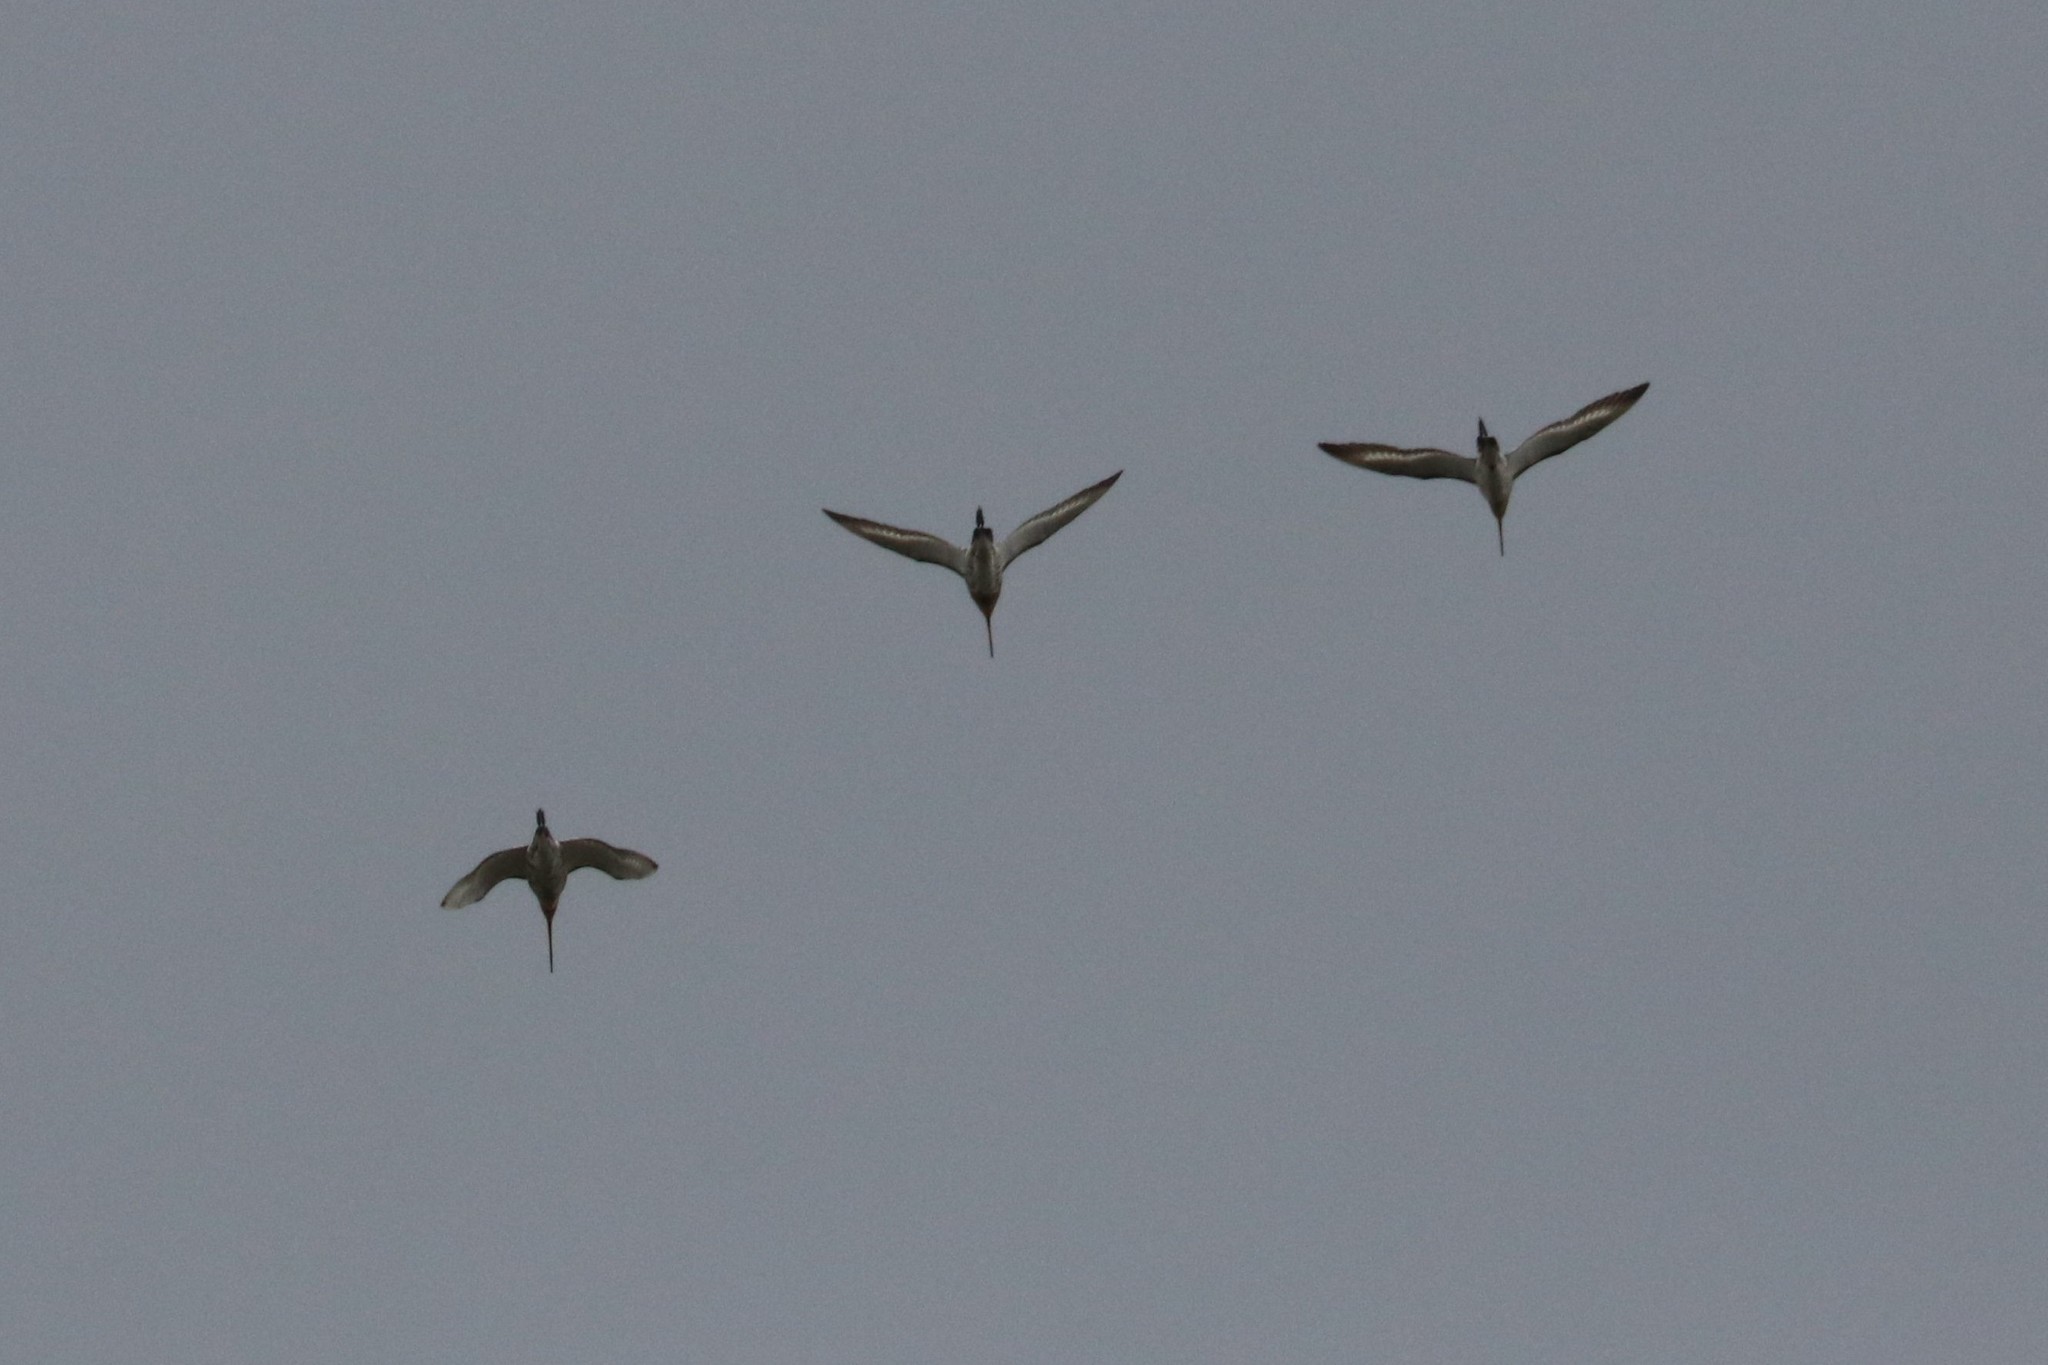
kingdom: Animalia
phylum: Chordata
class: Aves
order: Charadriiformes
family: Scolopacidae
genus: Limosa
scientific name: Limosa limosa
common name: Black-tailed godwit
